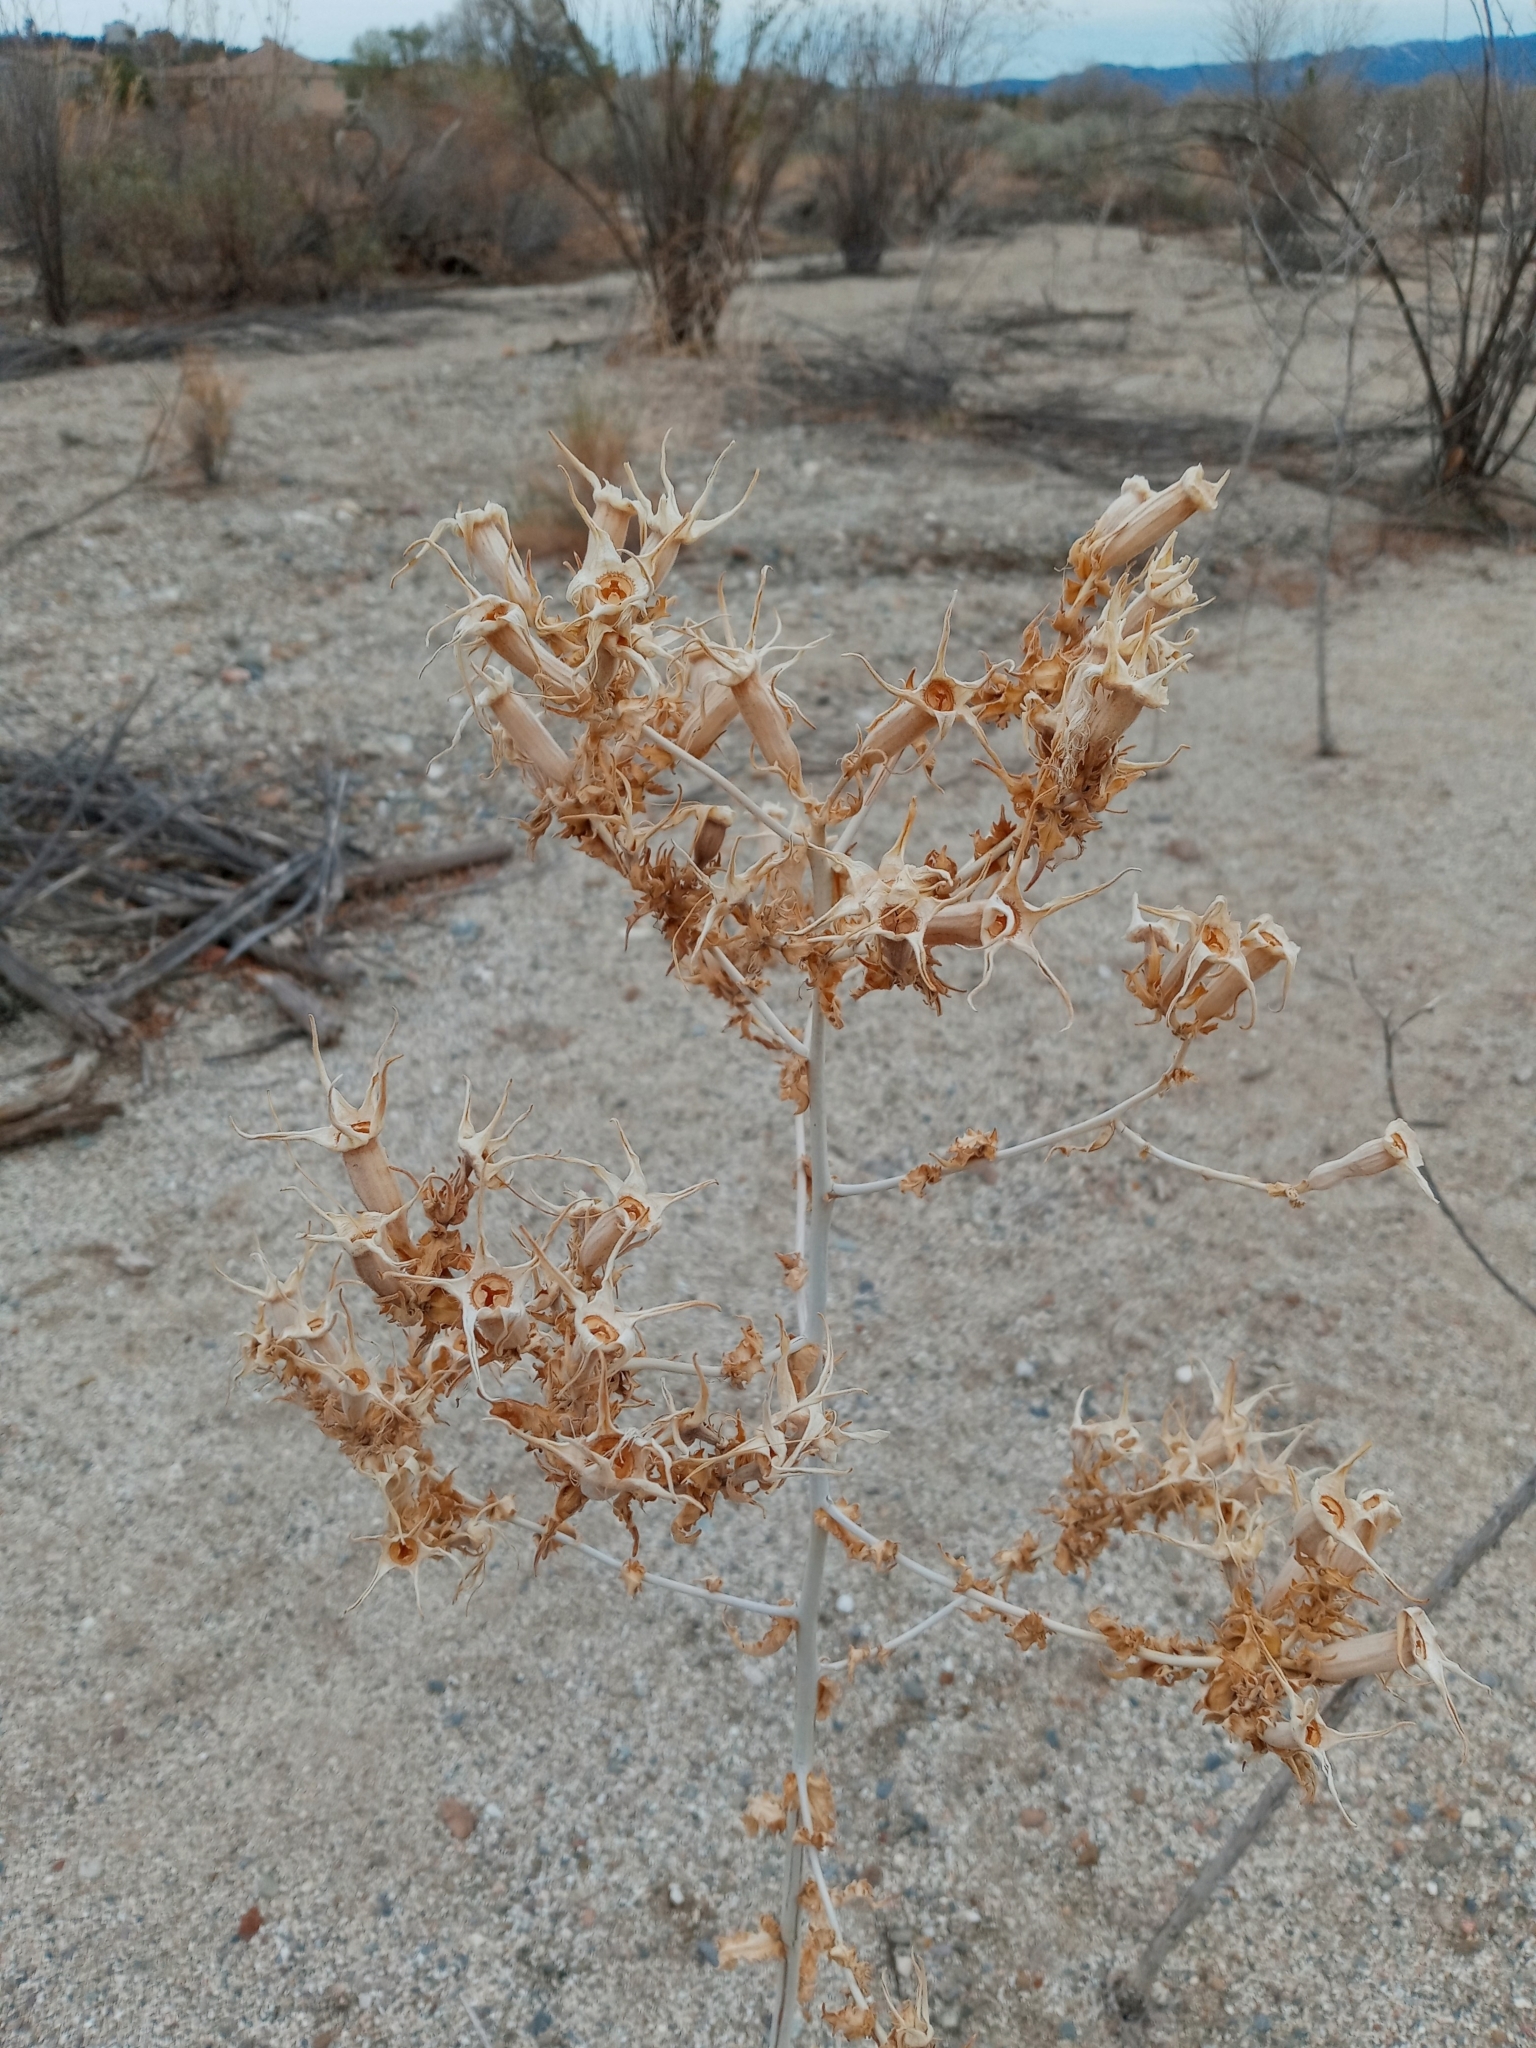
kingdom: Plantae
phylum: Tracheophyta
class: Magnoliopsida
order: Cornales
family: Loasaceae
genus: Mentzelia
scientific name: Mentzelia laevicaulis
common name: Smooth-stem blazingstar
